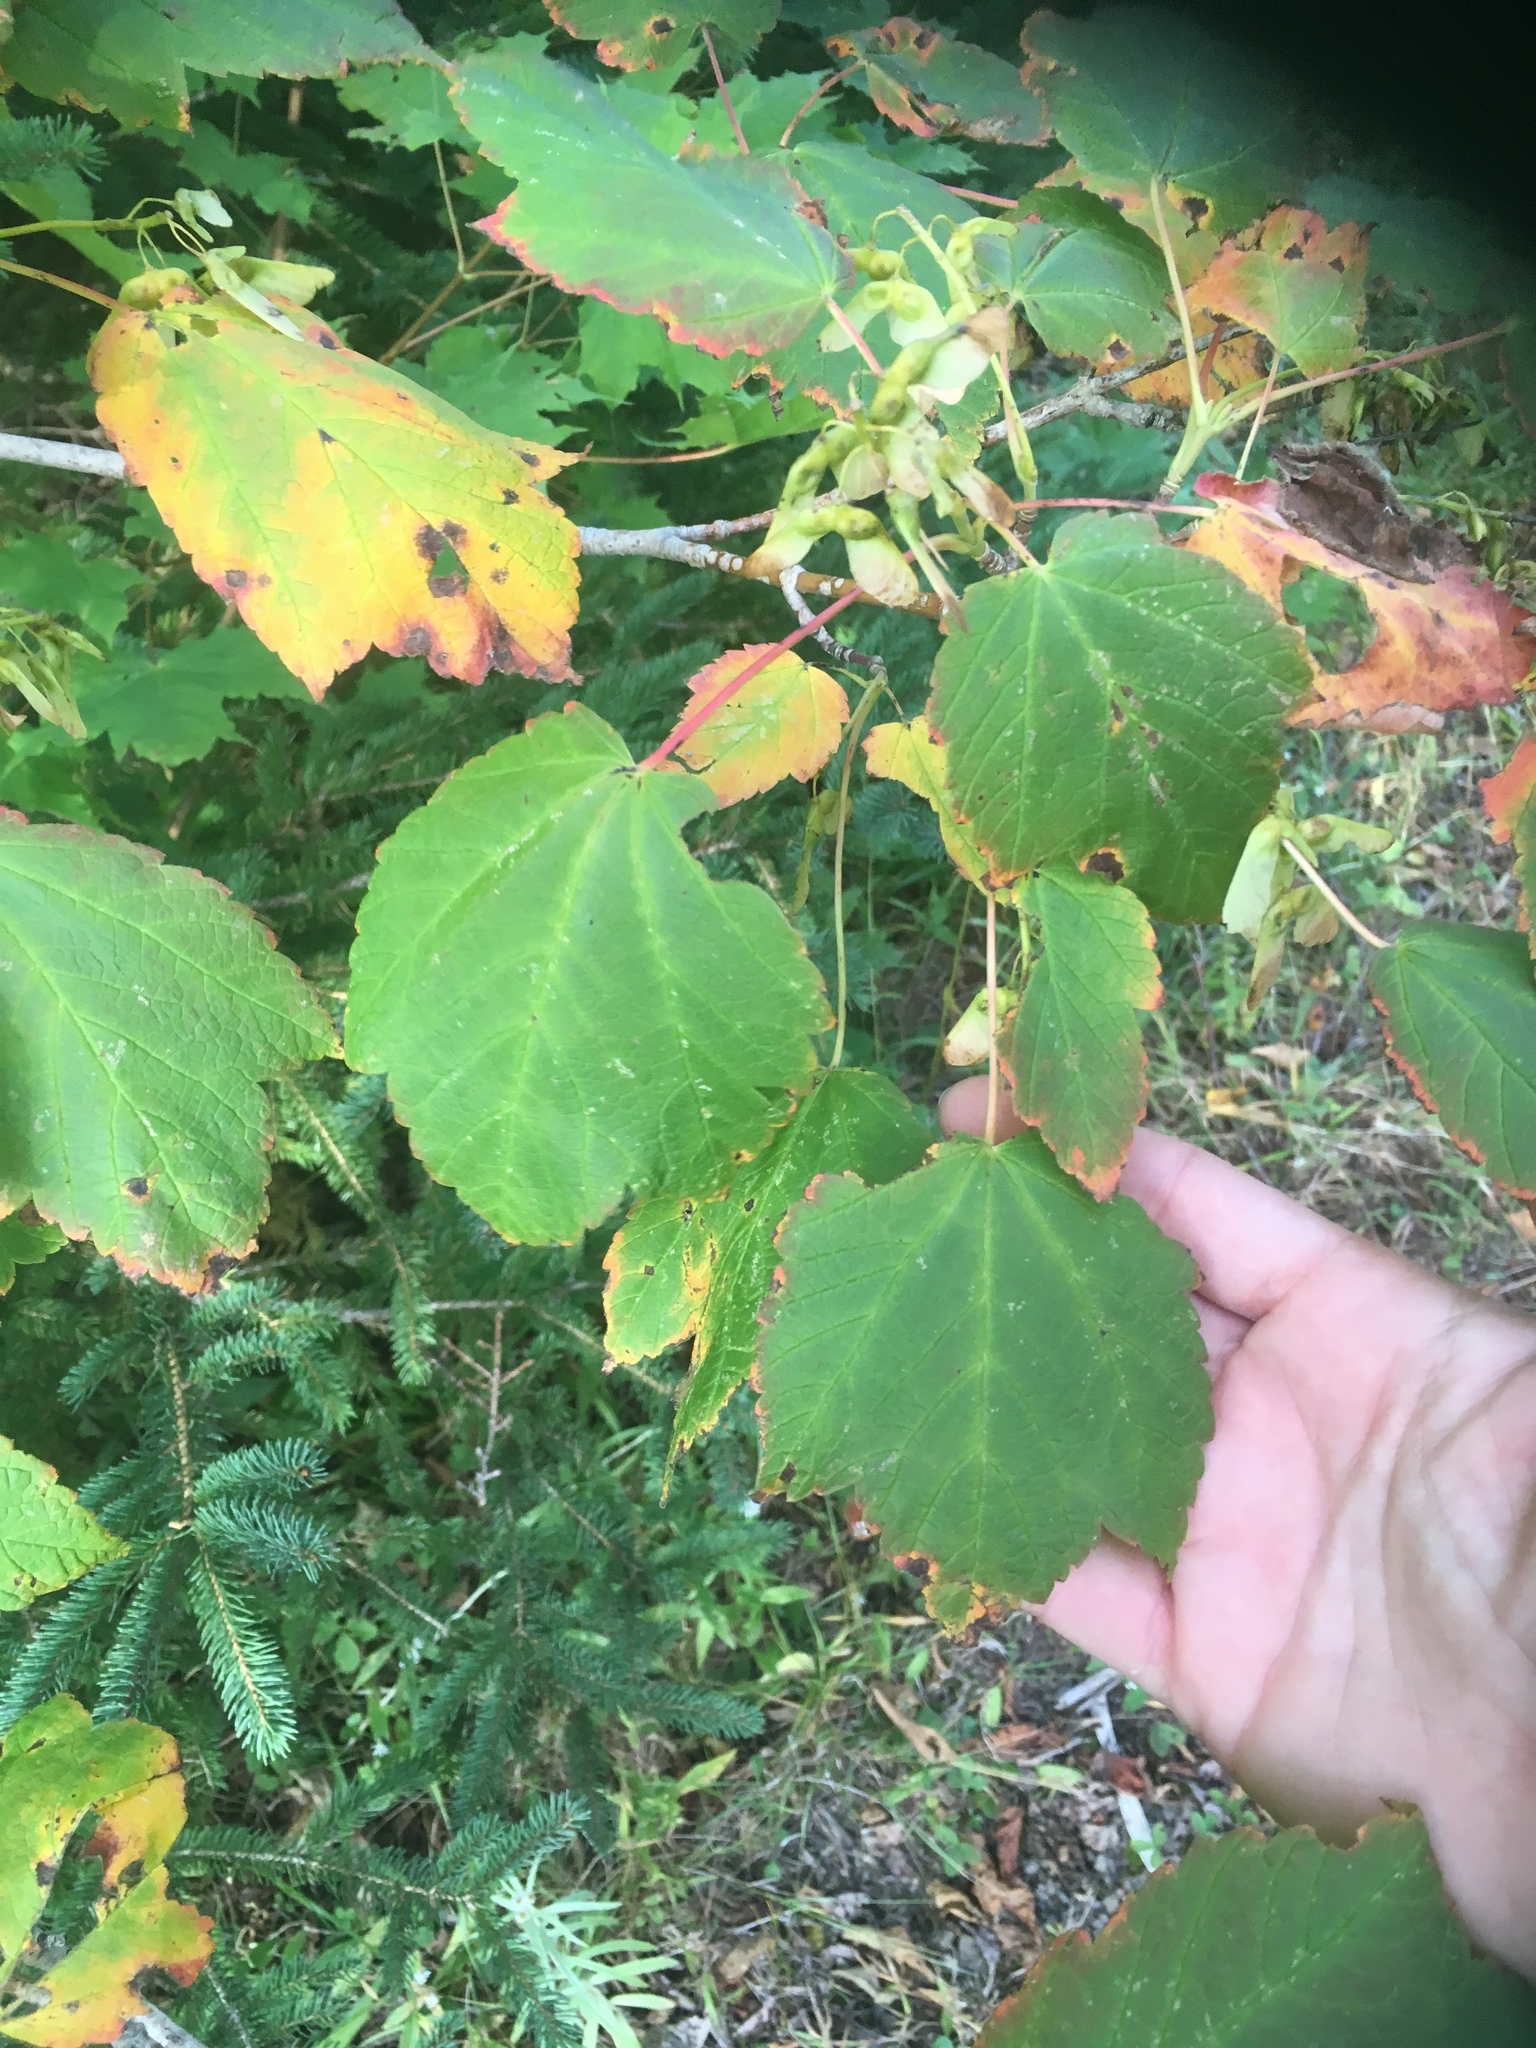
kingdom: Plantae
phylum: Tracheophyta
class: Magnoliopsida
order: Sapindales
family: Sapindaceae
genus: Acer
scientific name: Acer spicatum
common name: Mountain maple
